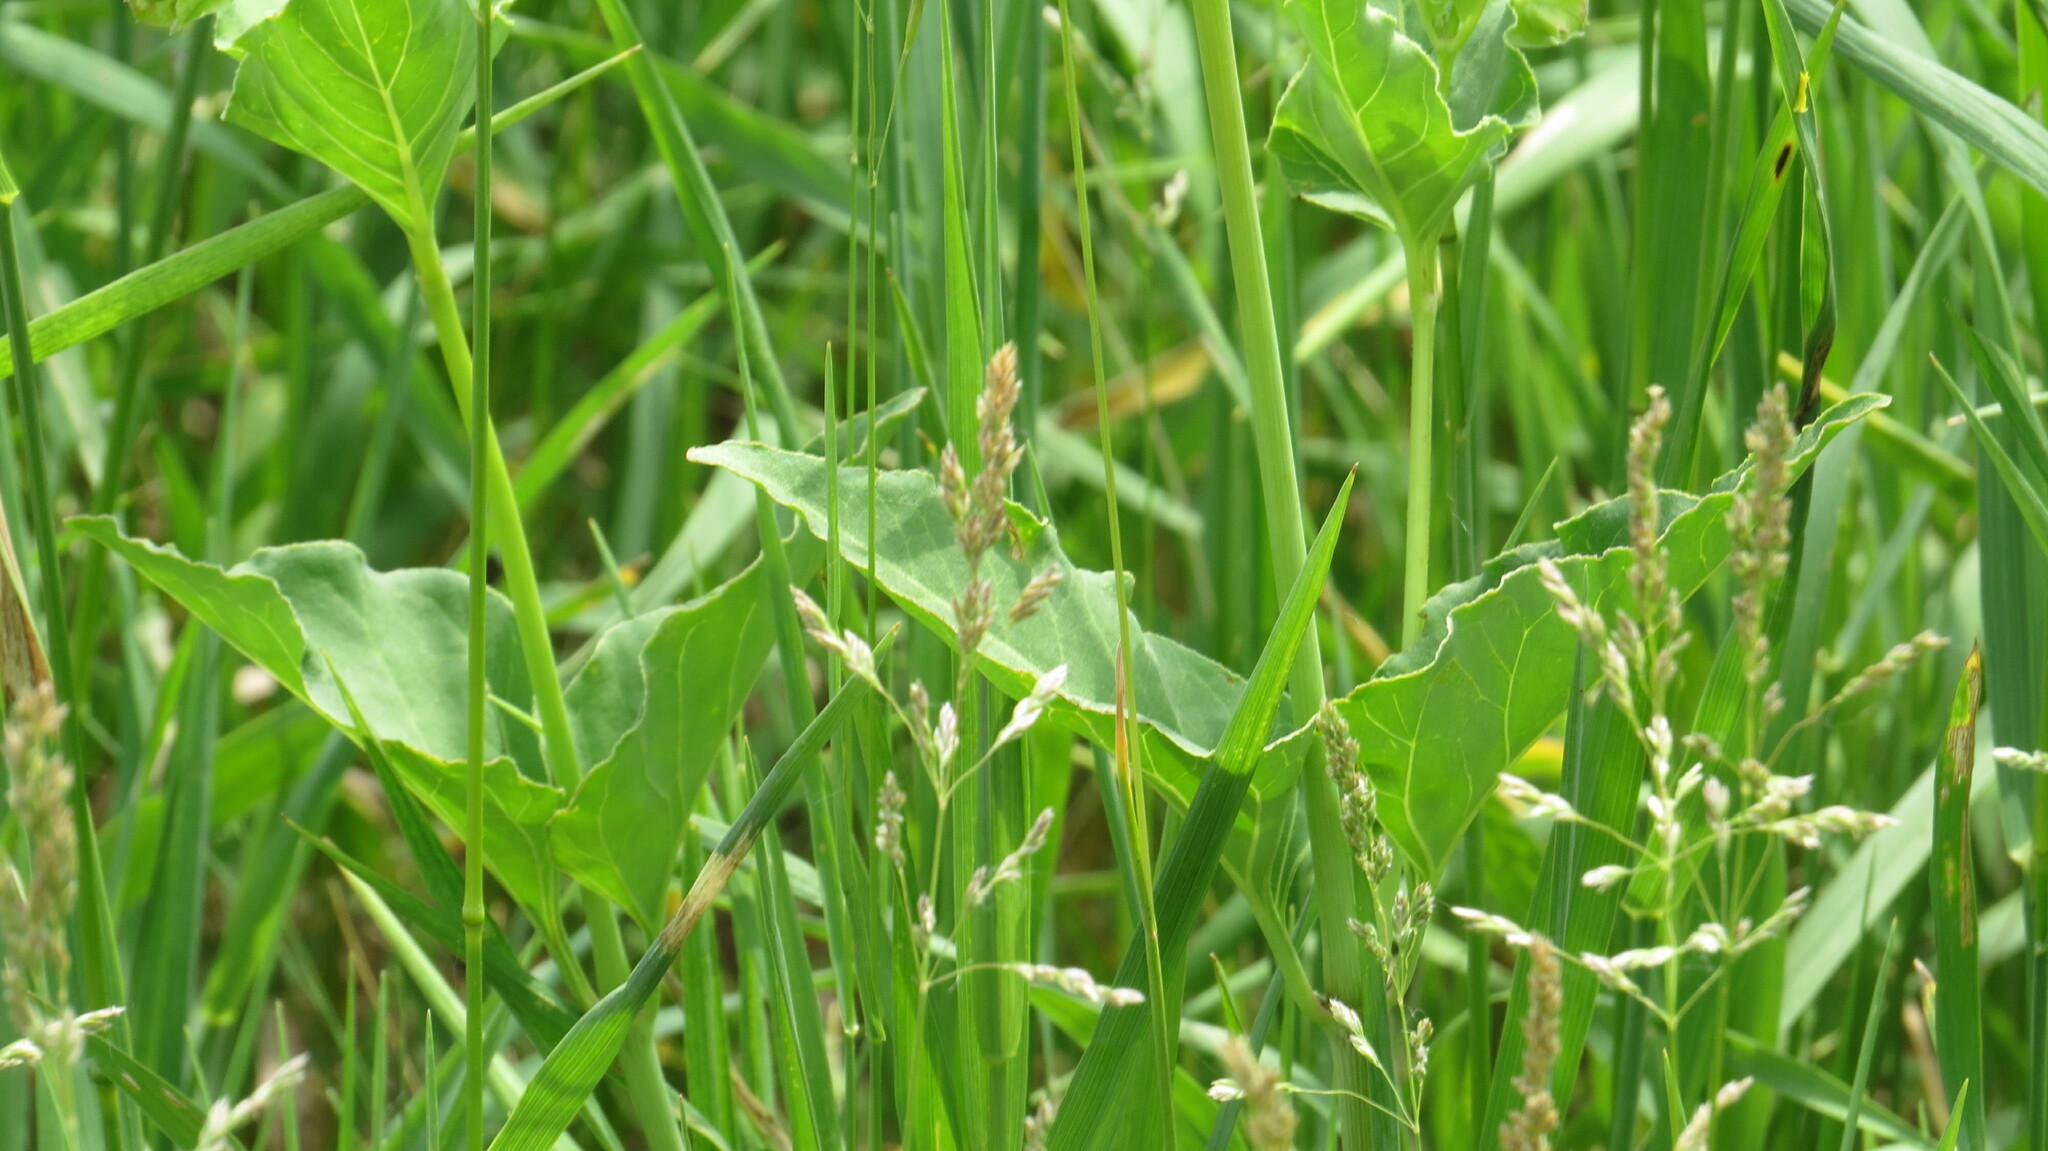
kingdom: Plantae
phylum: Tracheophyta
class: Magnoliopsida
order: Caryophyllales
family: Nyctaginaceae
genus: Mirabilis
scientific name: Mirabilis nyctaginea
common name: Umbrella wort
